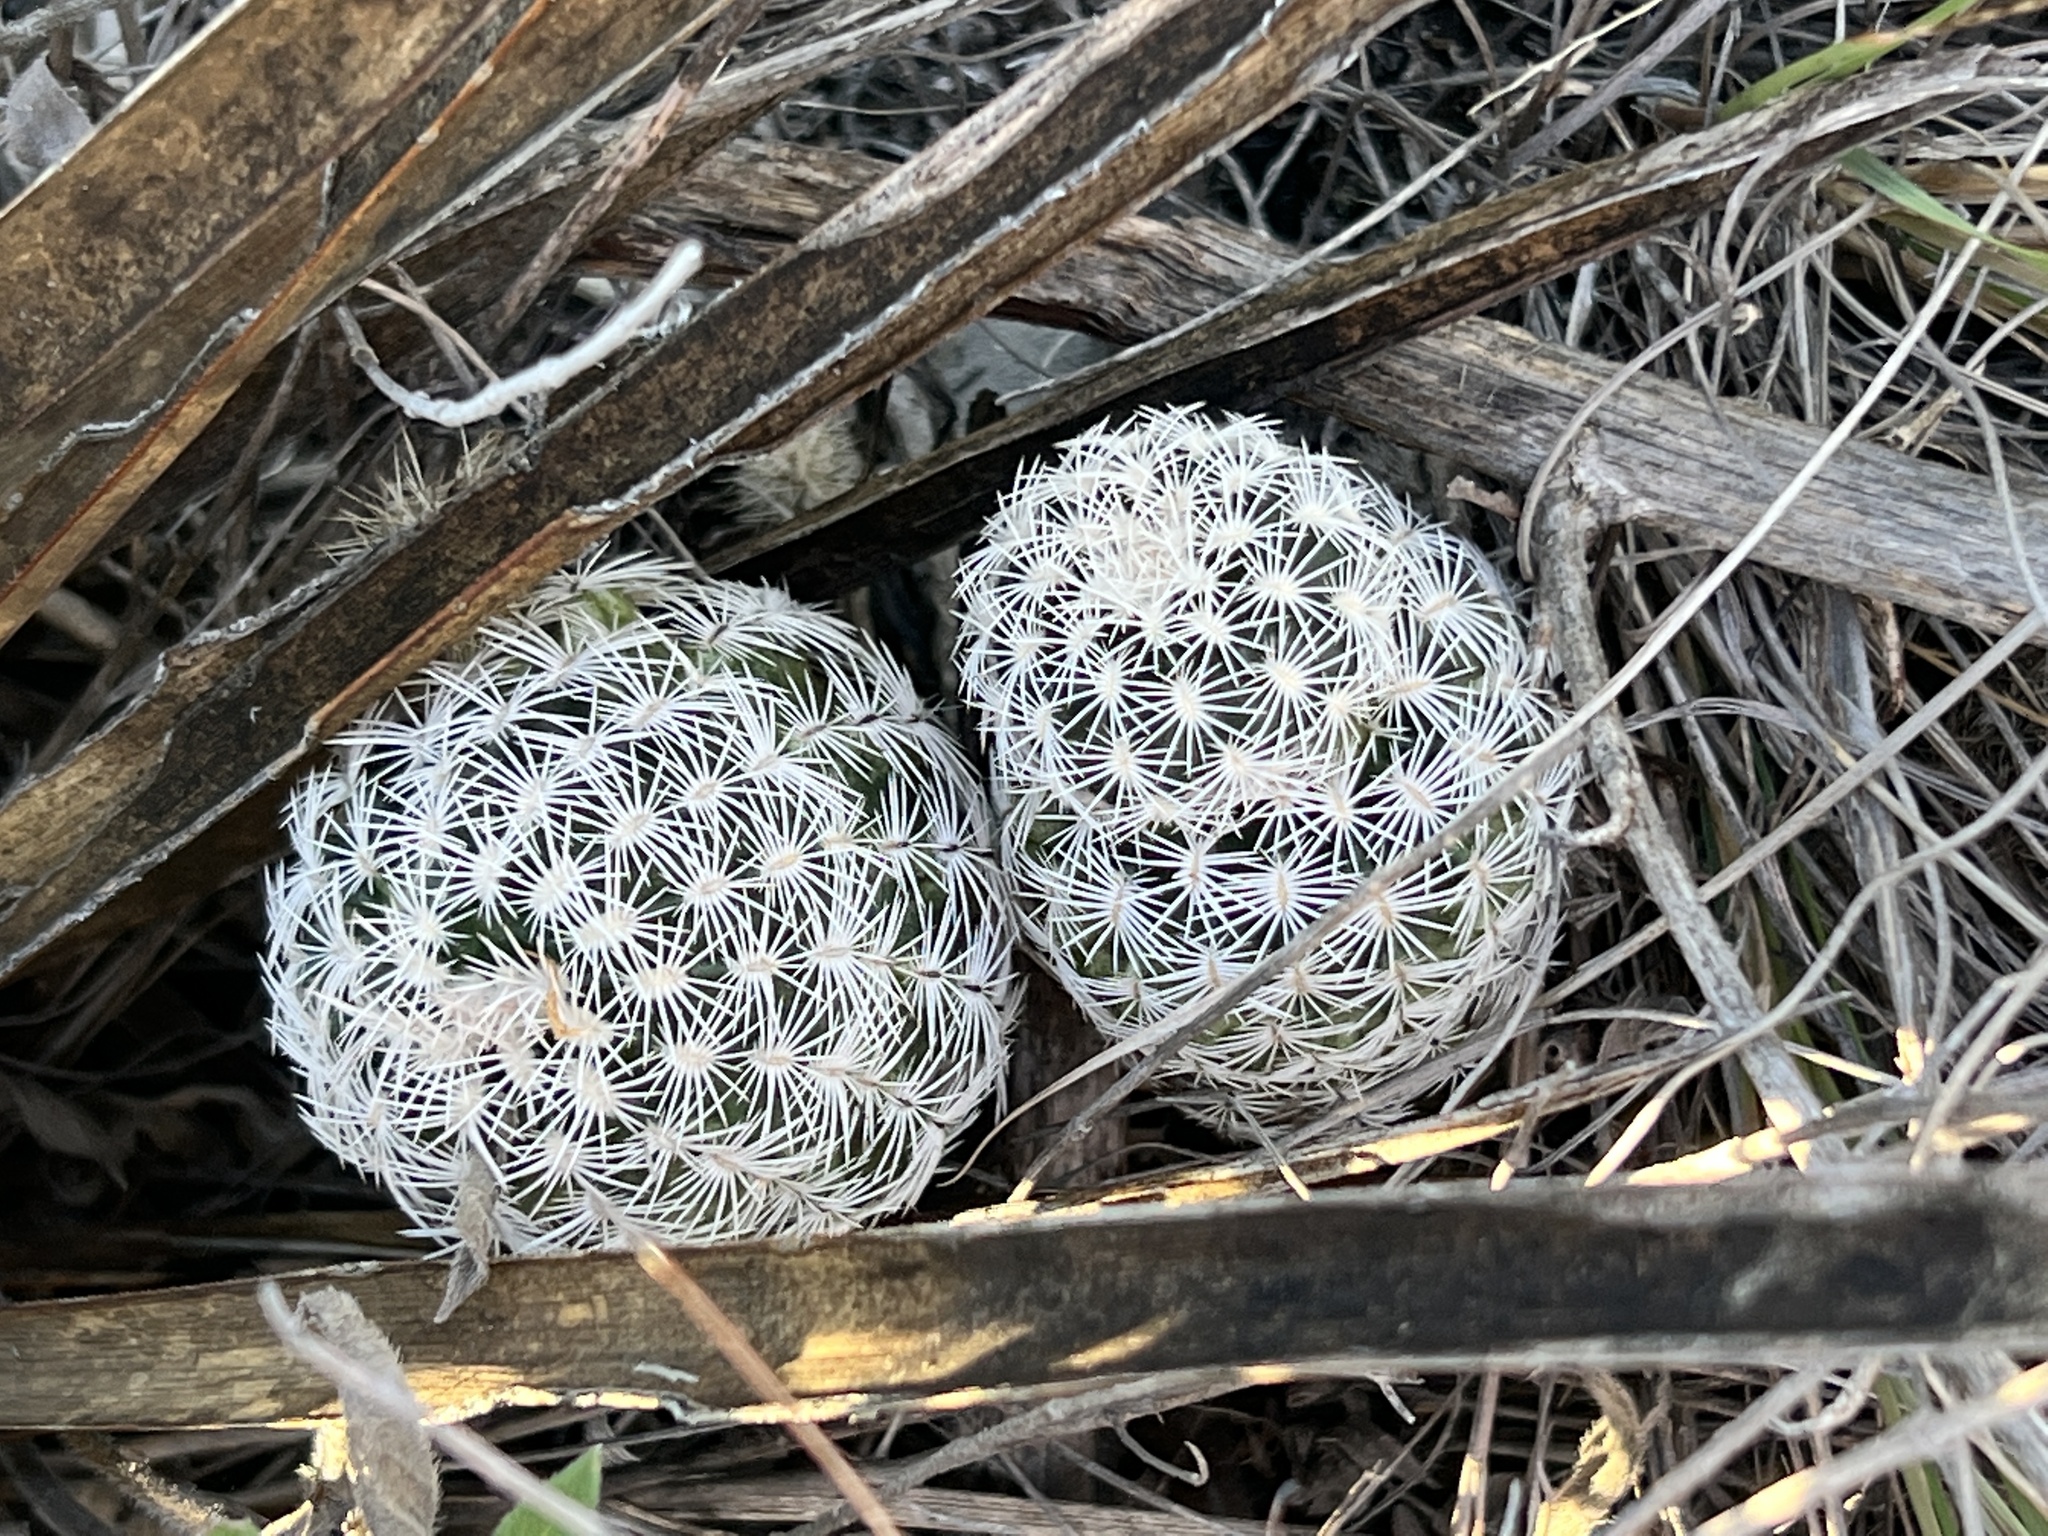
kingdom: Plantae
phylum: Tracheophyta
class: Magnoliopsida
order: Caryophyllales
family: Cactaceae
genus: Echinocereus
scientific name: Echinocereus reichenbachii
